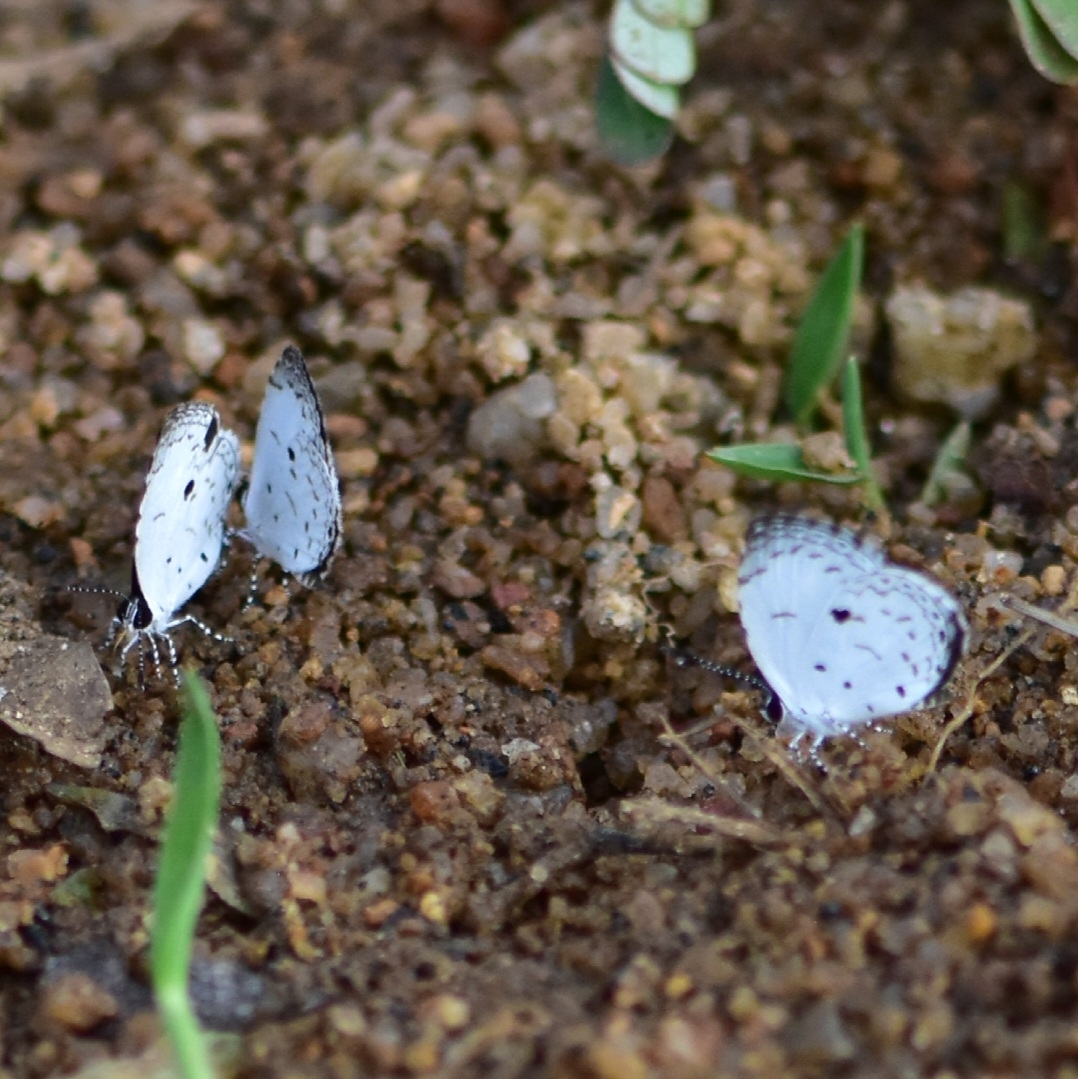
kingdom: Animalia
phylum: Arthropoda
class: Insecta
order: Lepidoptera
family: Lycaenidae
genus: Neopithecops
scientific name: Neopithecops zalmora
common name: Quaker
